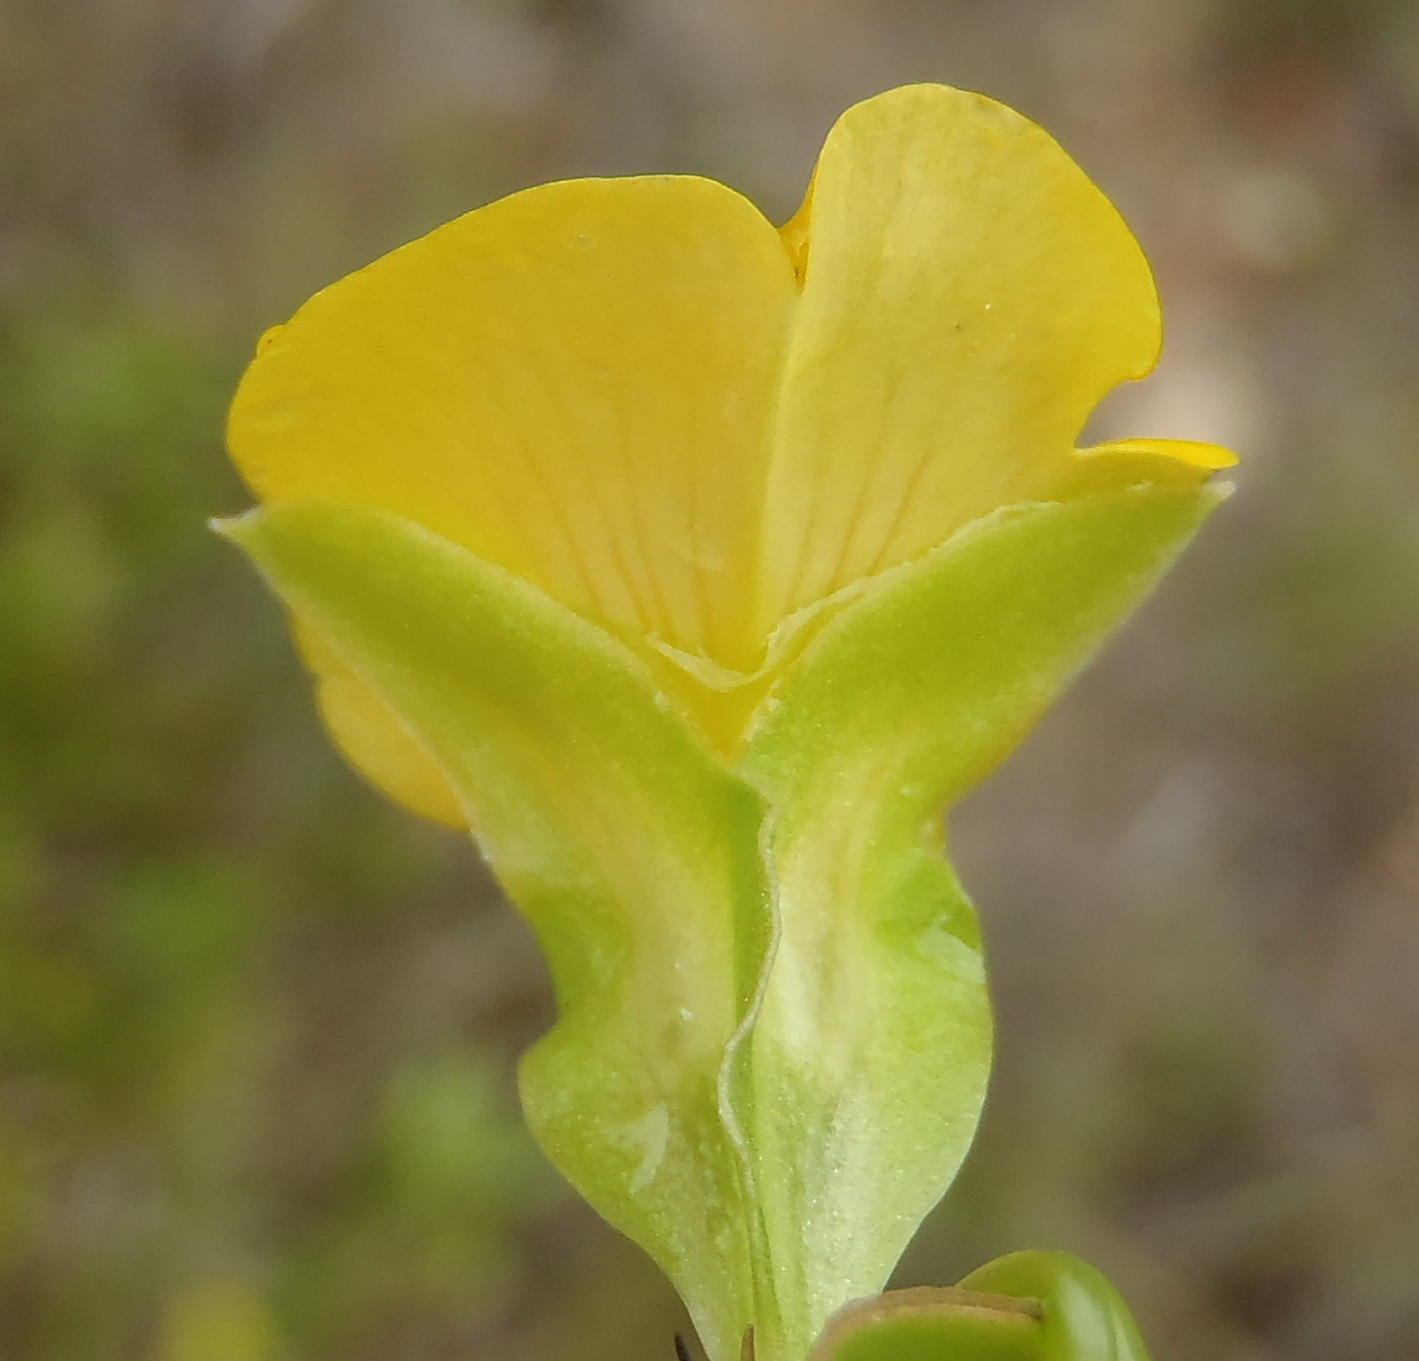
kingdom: Plantae
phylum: Tracheophyta
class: Magnoliopsida
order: Fabales
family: Fabaceae
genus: Rafnia
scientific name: Rafnia vlokii
